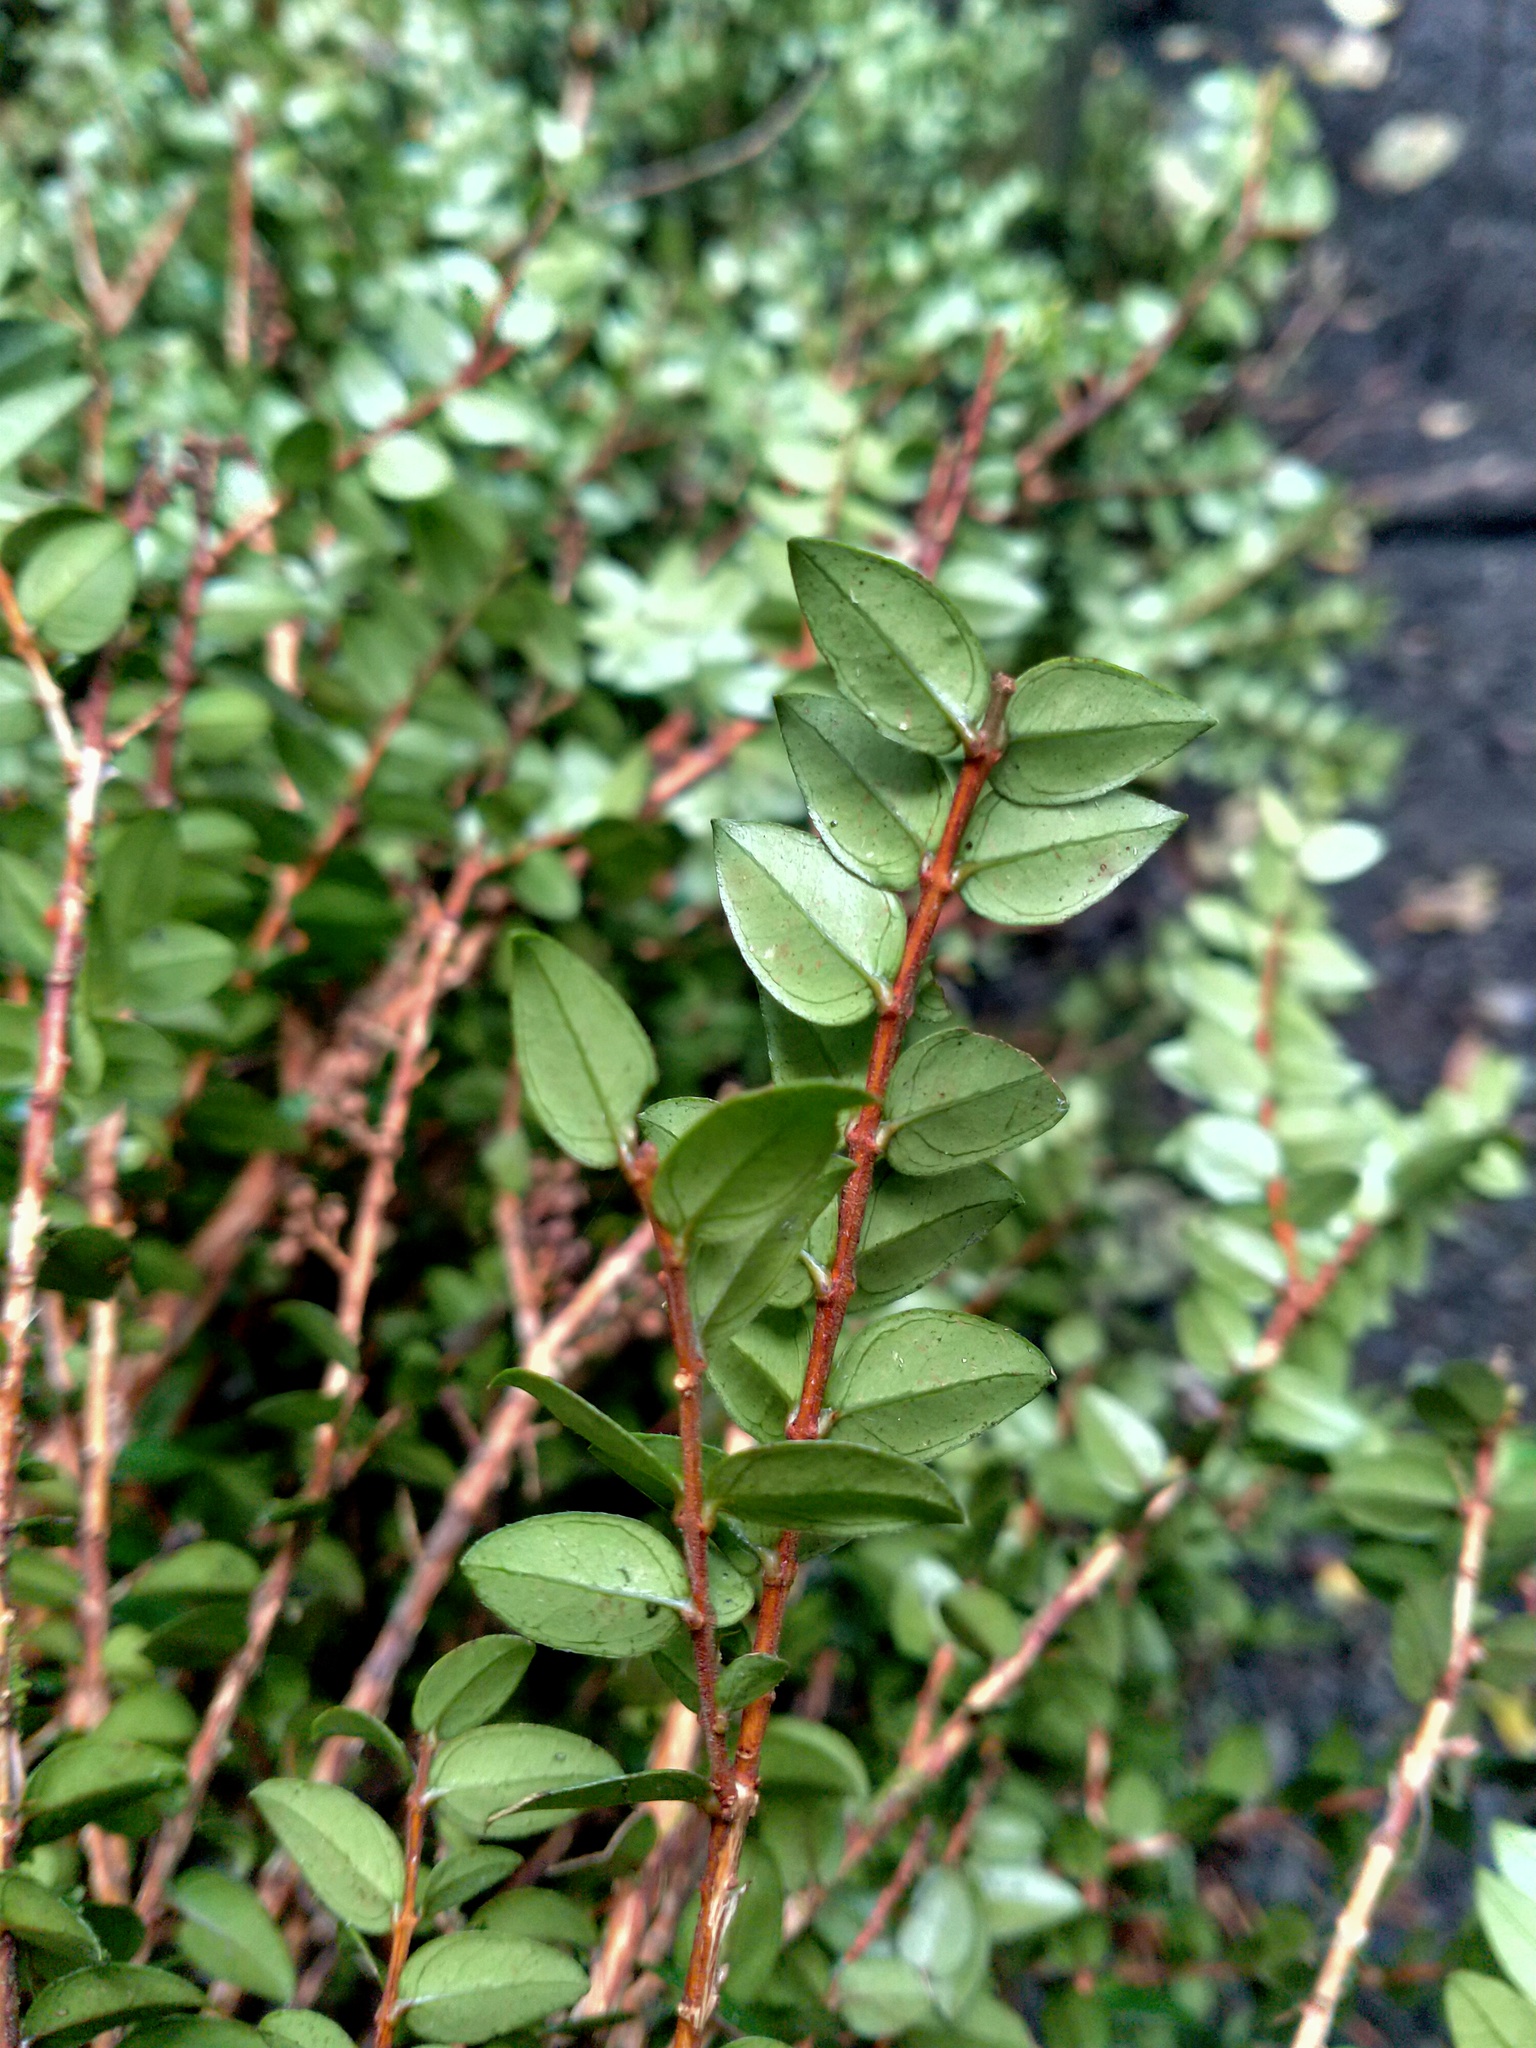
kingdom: Plantae
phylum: Tracheophyta
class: Magnoliopsida
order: Myrtales
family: Myrtaceae
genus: Metrosideros
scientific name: Metrosideros diffusa
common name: Small ratavine
